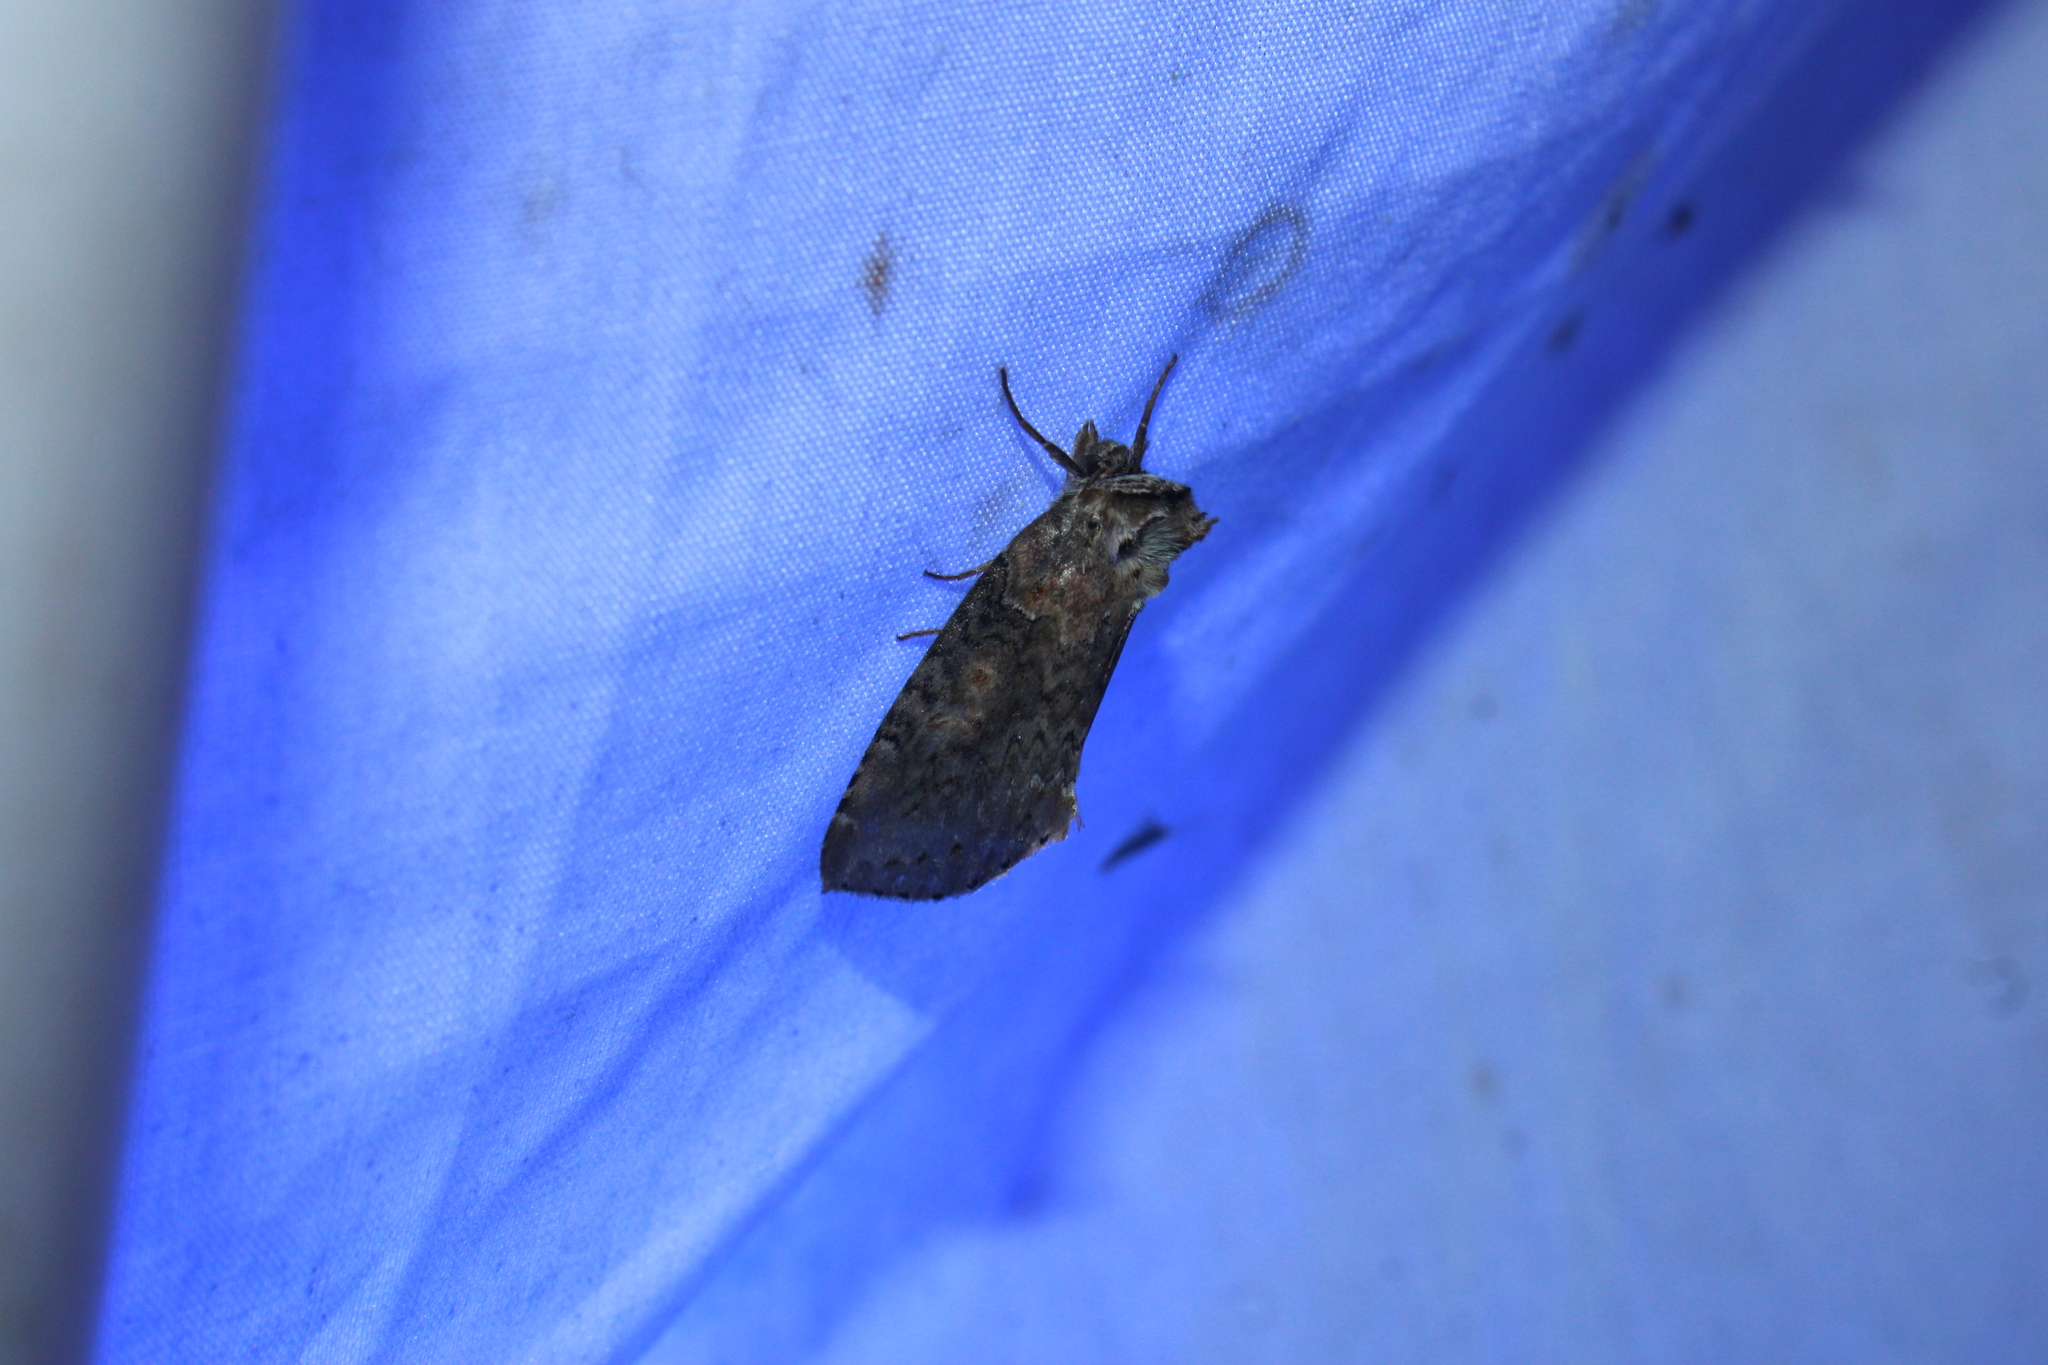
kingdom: Animalia
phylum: Arthropoda
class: Insecta
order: Lepidoptera
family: Drepanidae
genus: Pseudothyatira
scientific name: Pseudothyatira cymatophoroides
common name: Tufted thyatirid moth
